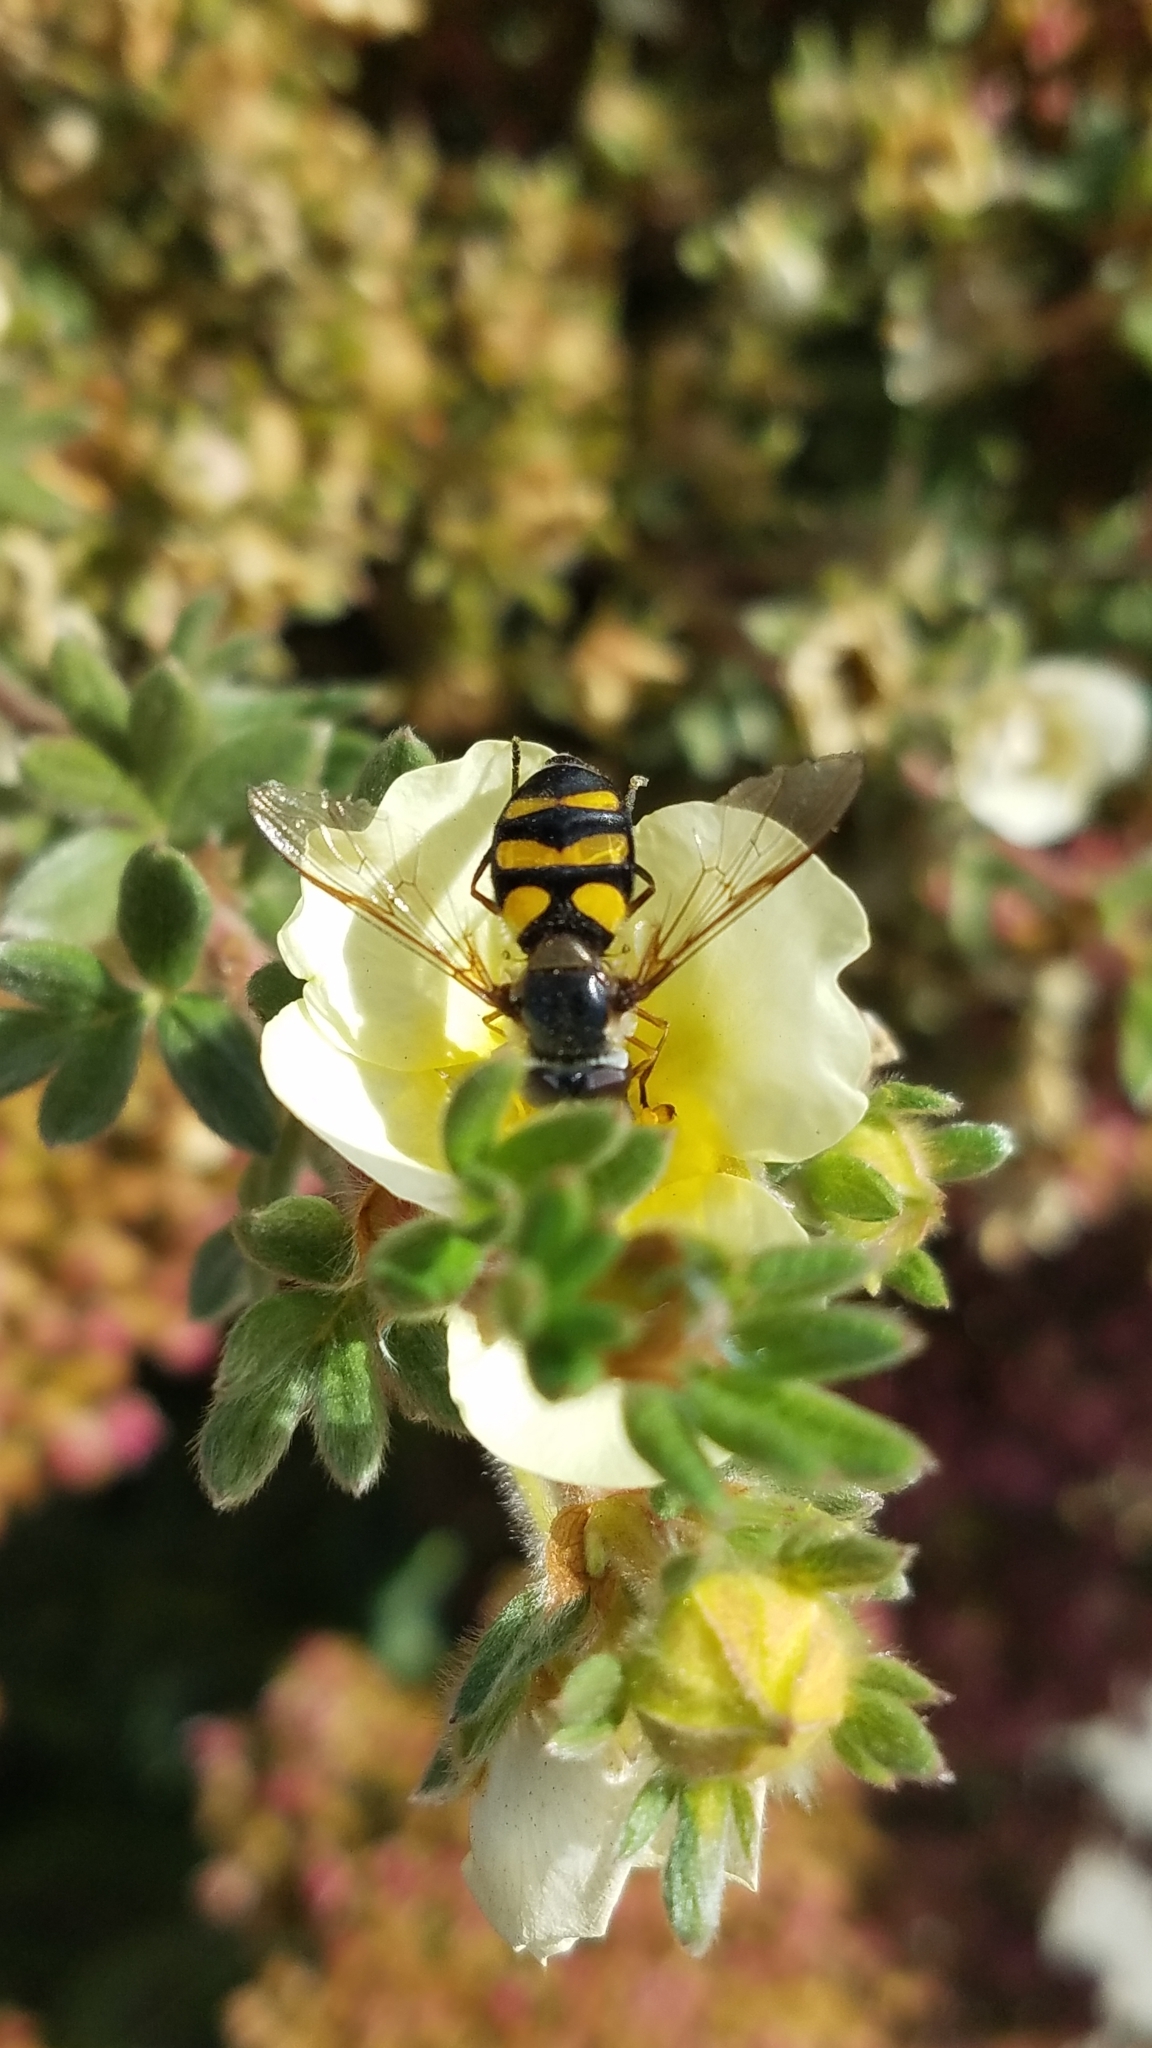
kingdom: Animalia
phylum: Arthropoda
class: Insecta
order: Diptera
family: Syrphidae
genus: Didea
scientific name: Didea fuscipes
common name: Undivided lucent
